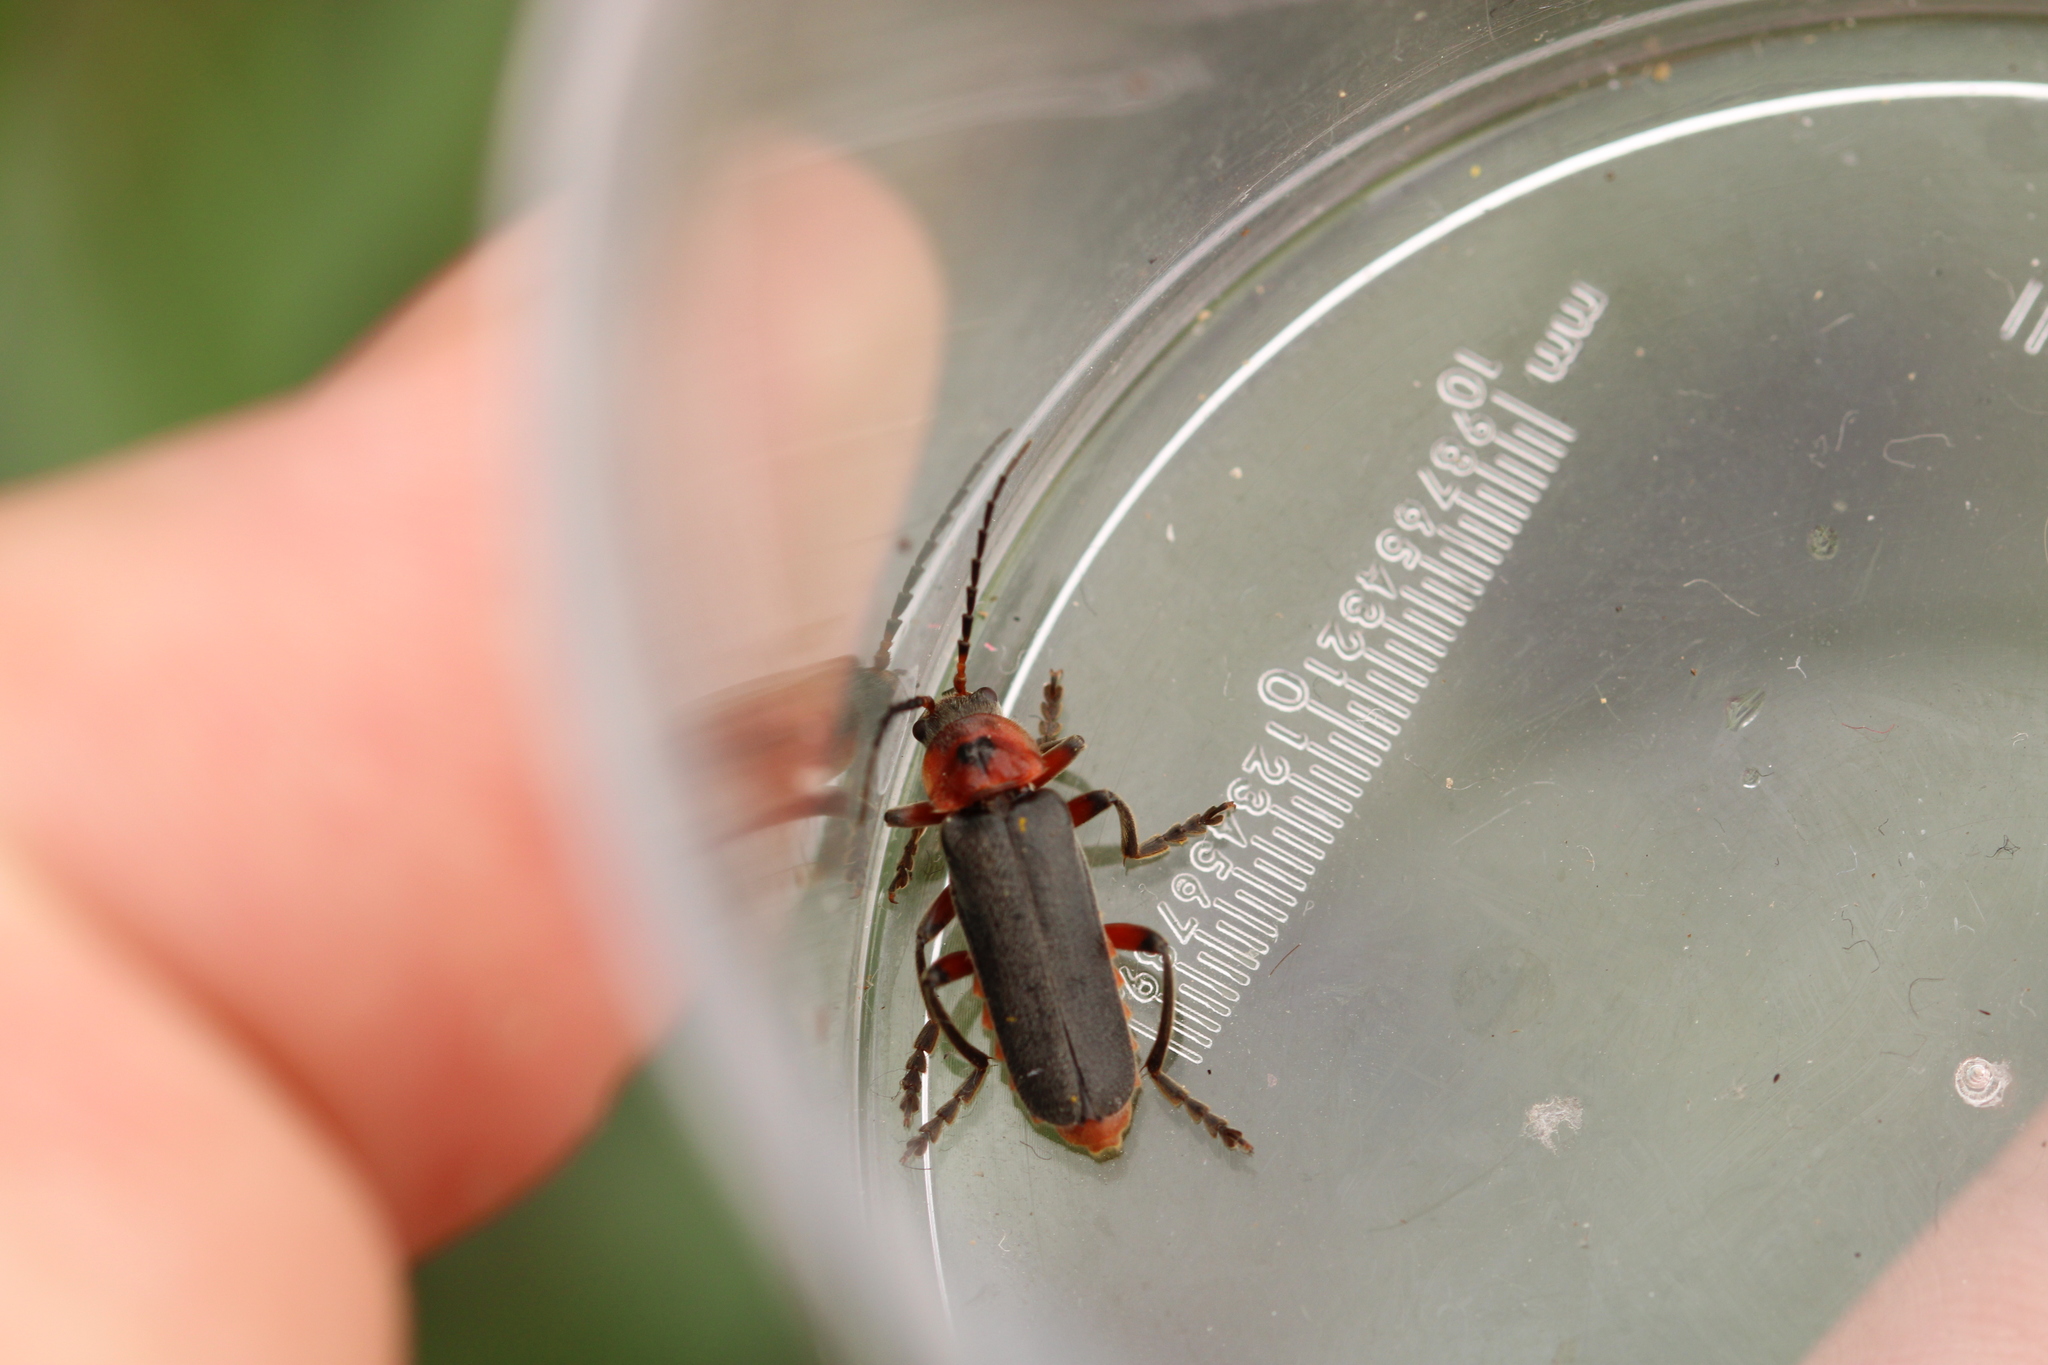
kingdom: Animalia
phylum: Arthropoda
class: Insecta
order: Coleoptera
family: Cantharidae
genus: Cantharis
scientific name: Cantharis rustica
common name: Soldier beetle
